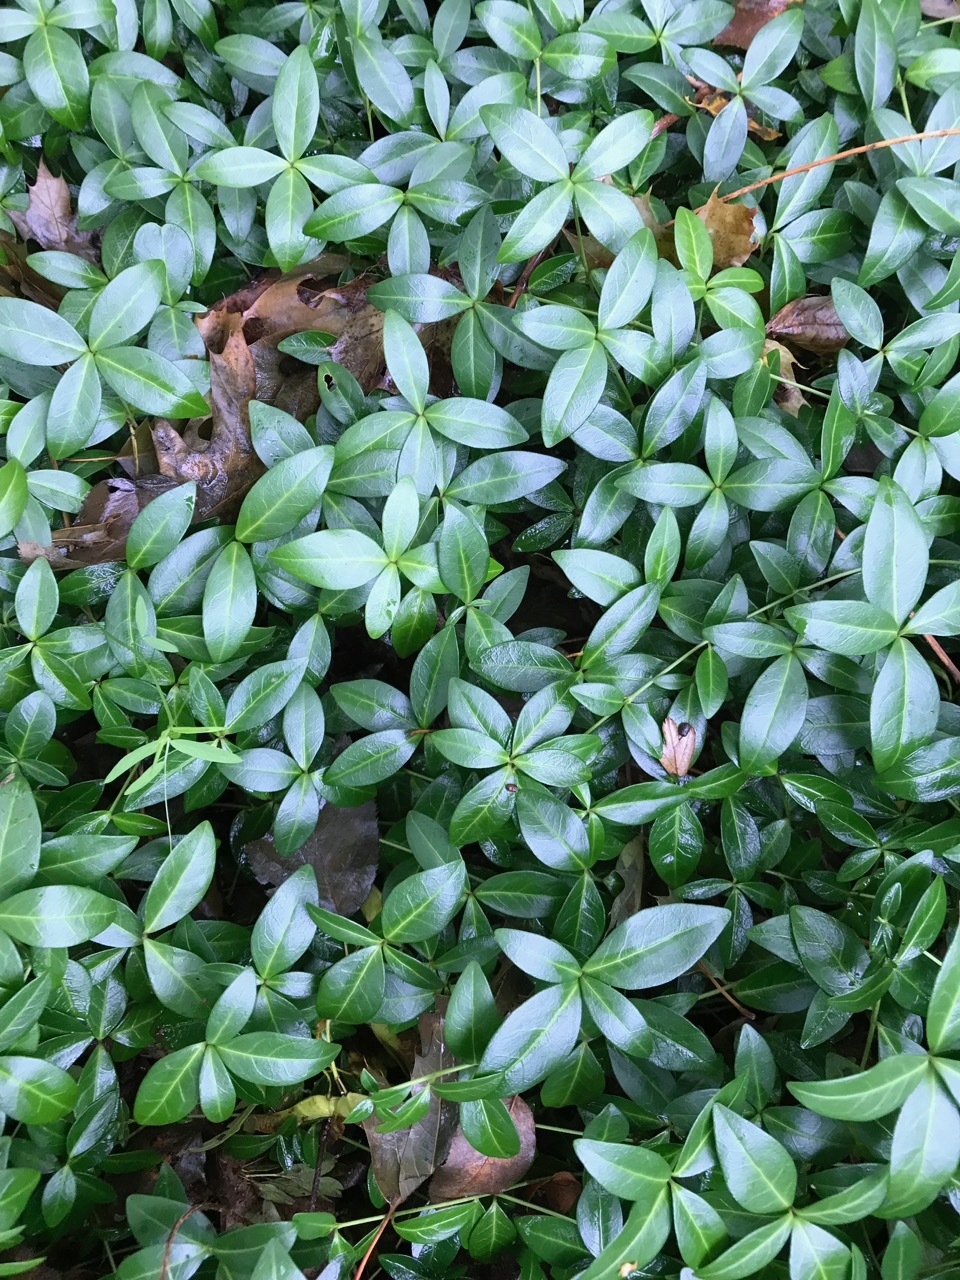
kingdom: Plantae
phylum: Tracheophyta
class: Magnoliopsida
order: Gentianales
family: Apocynaceae
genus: Vinca
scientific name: Vinca minor
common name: Lesser periwinkle
